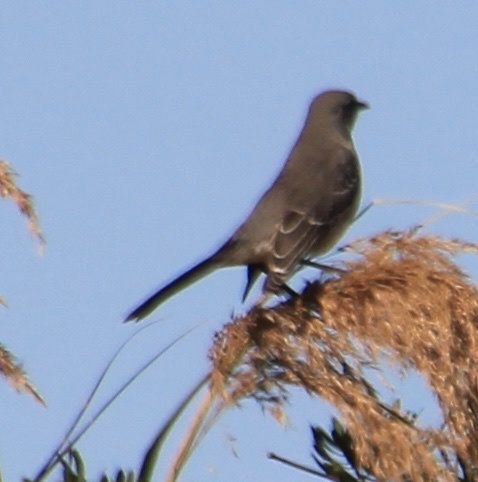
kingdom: Animalia
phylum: Chordata
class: Aves
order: Passeriformes
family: Mimidae
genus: Mimus
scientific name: Mimus polyglottos
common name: Northern mockingbird
